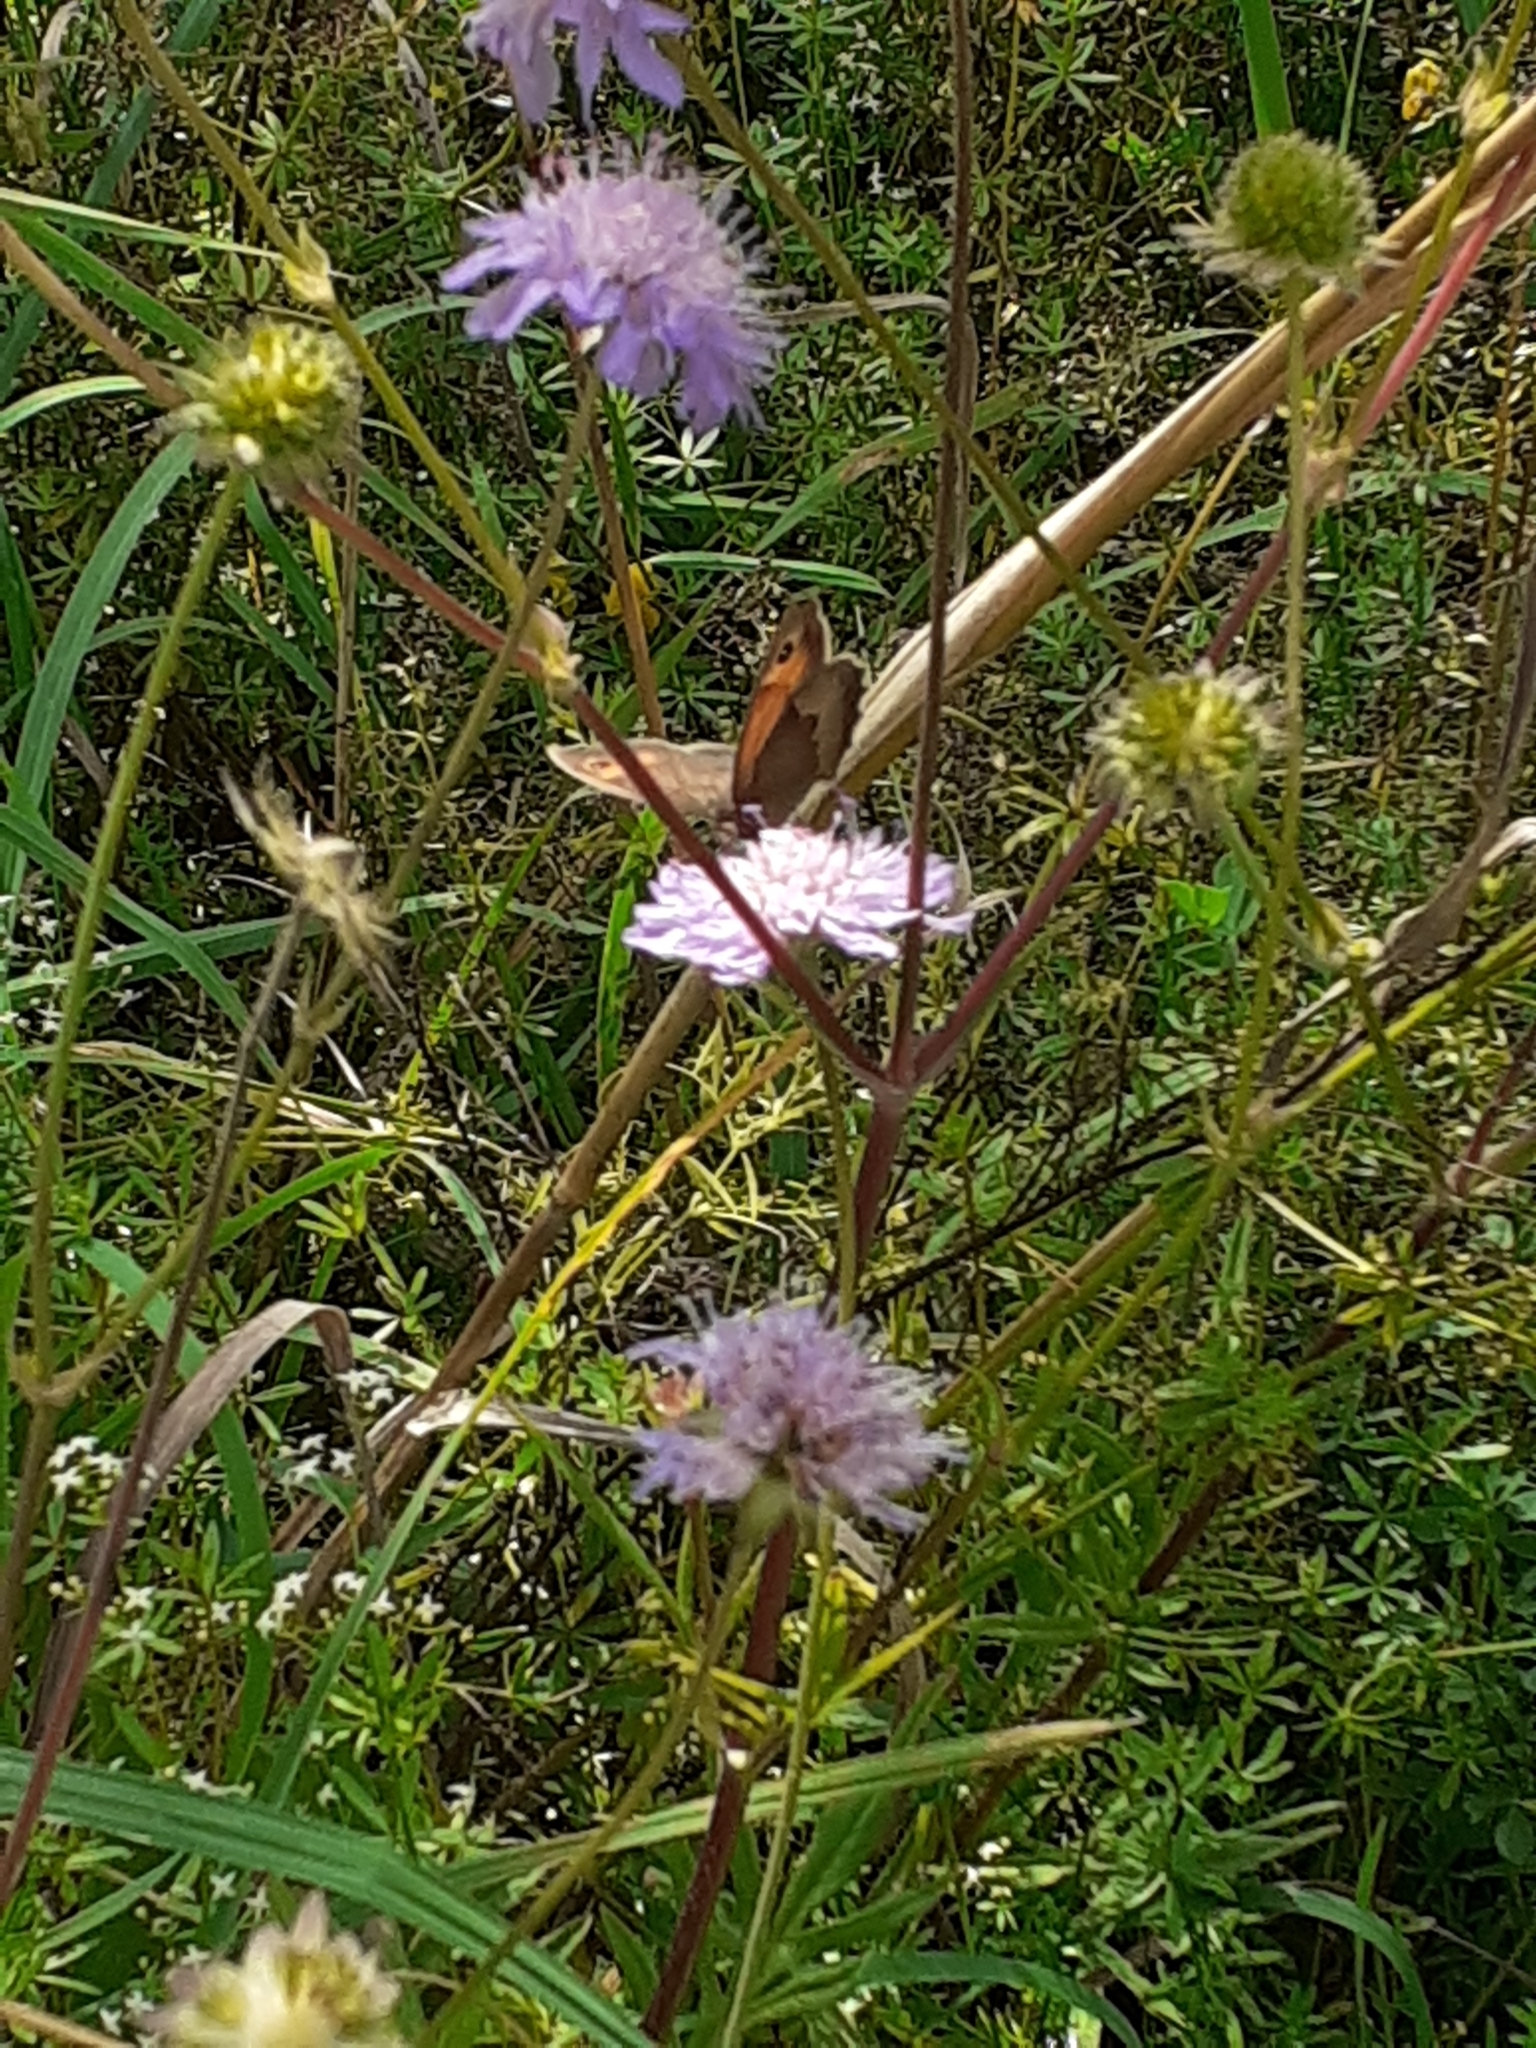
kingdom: Animalia
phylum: Arthropoda
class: Insecta
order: Lepidoptera
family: Nymphalidae
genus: Maniola
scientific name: Maniola jurtina
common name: Meadow brown
